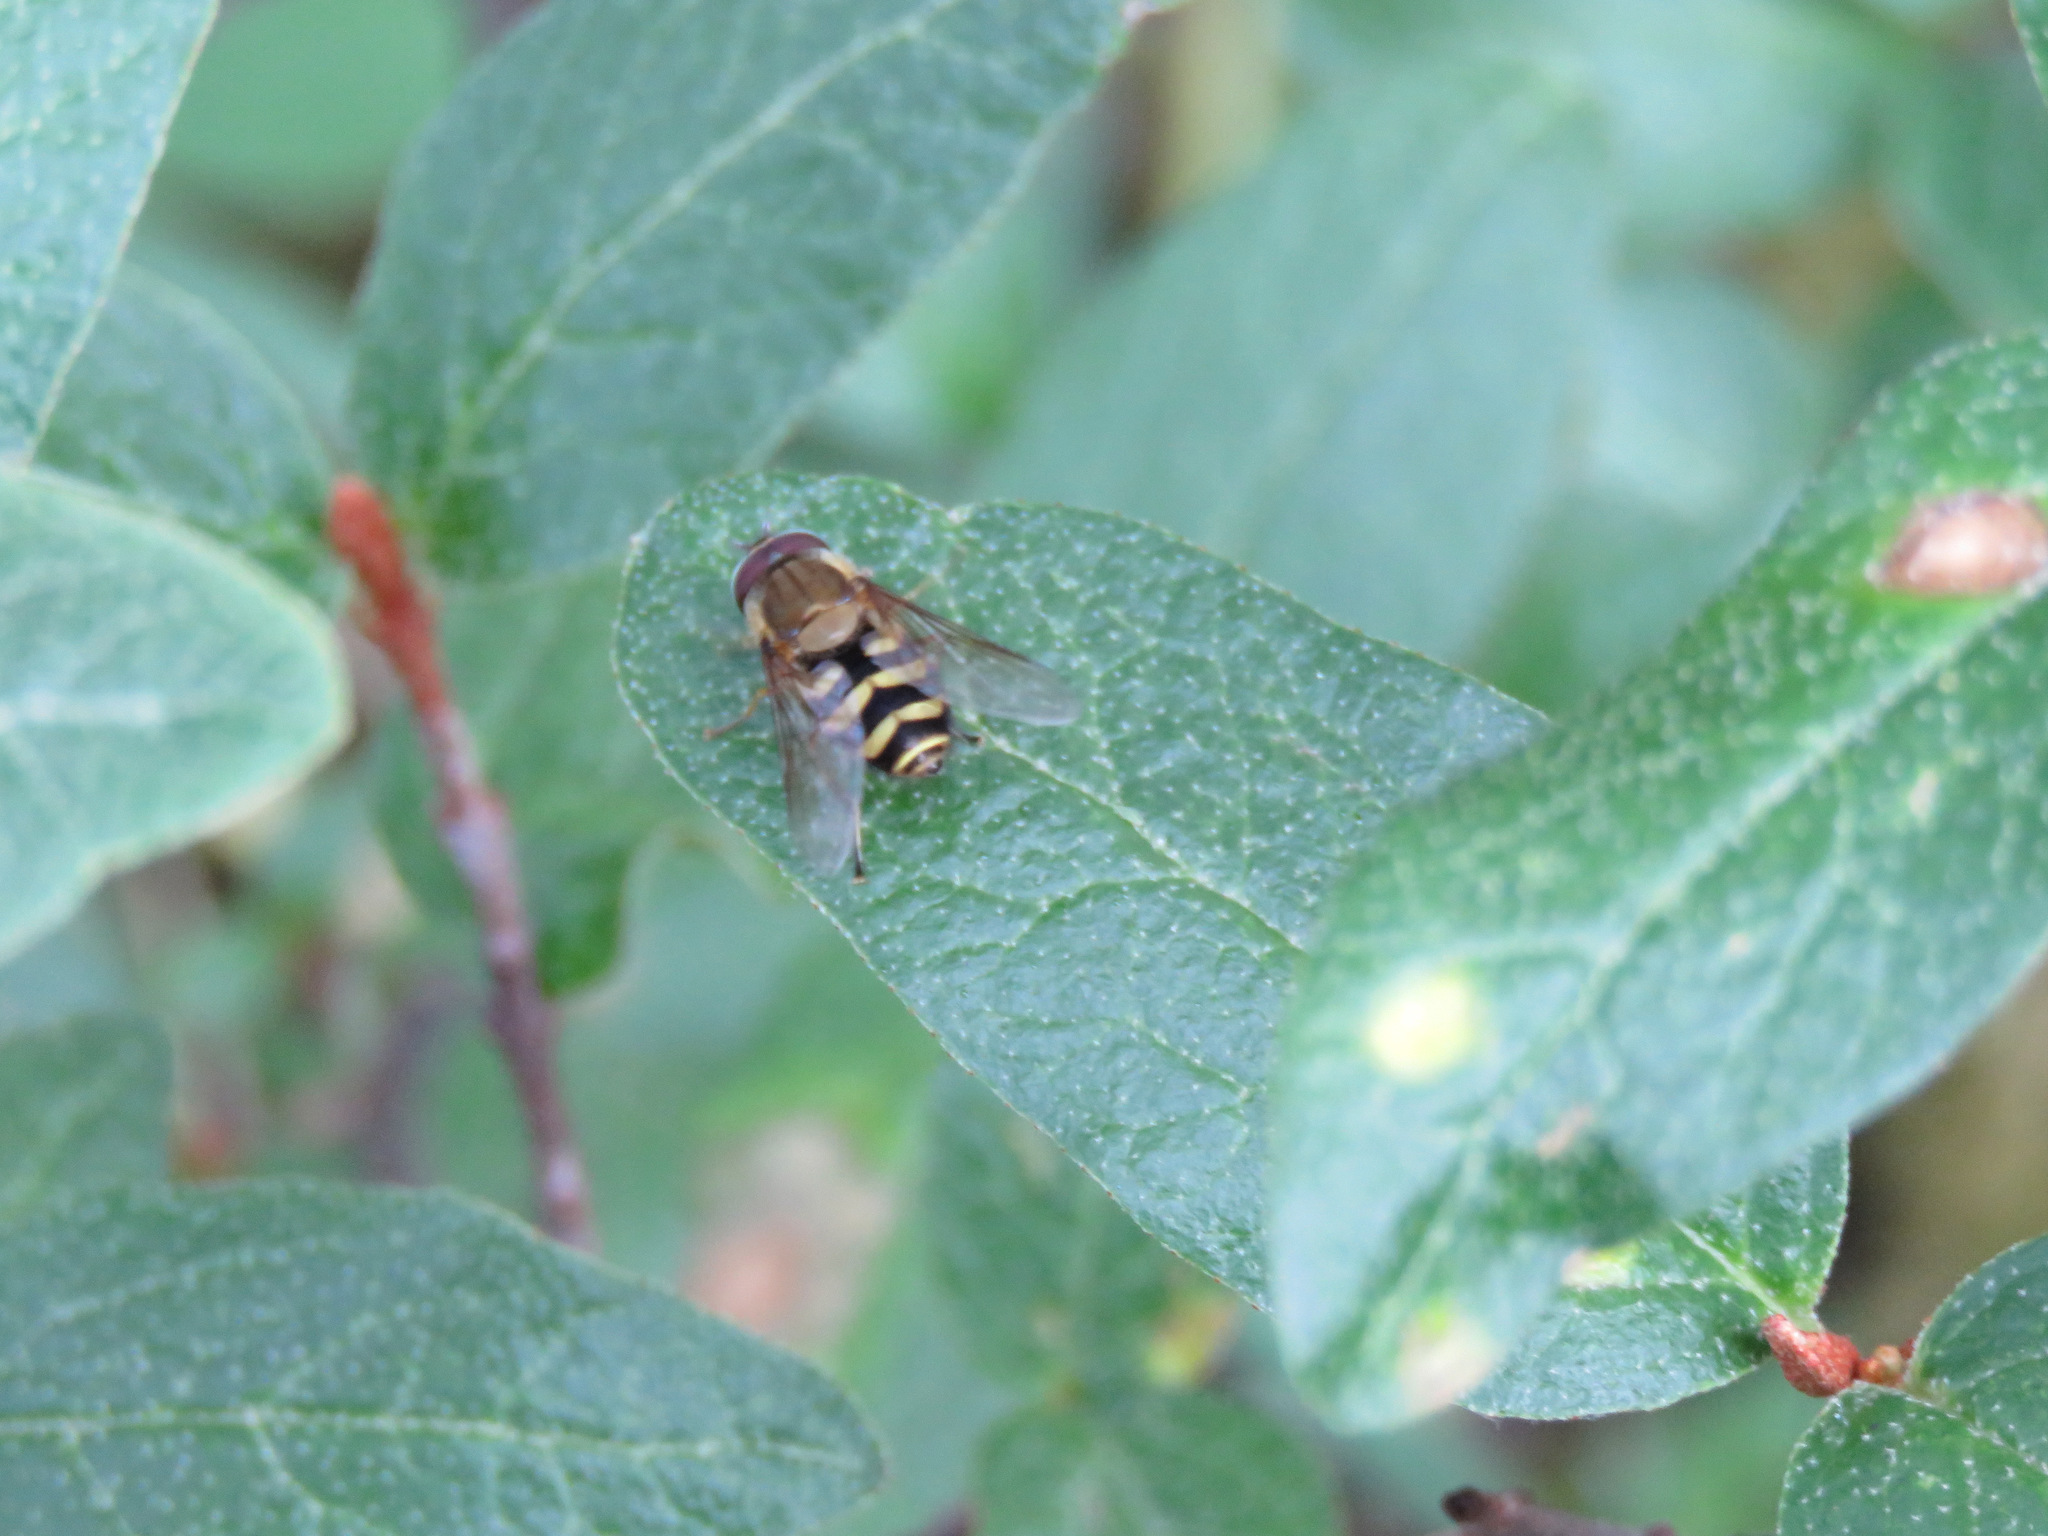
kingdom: Animalia
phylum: Arthropoda
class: Insecta
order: Diptera
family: Syrphidae
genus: Syrphus
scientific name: Syrphus
